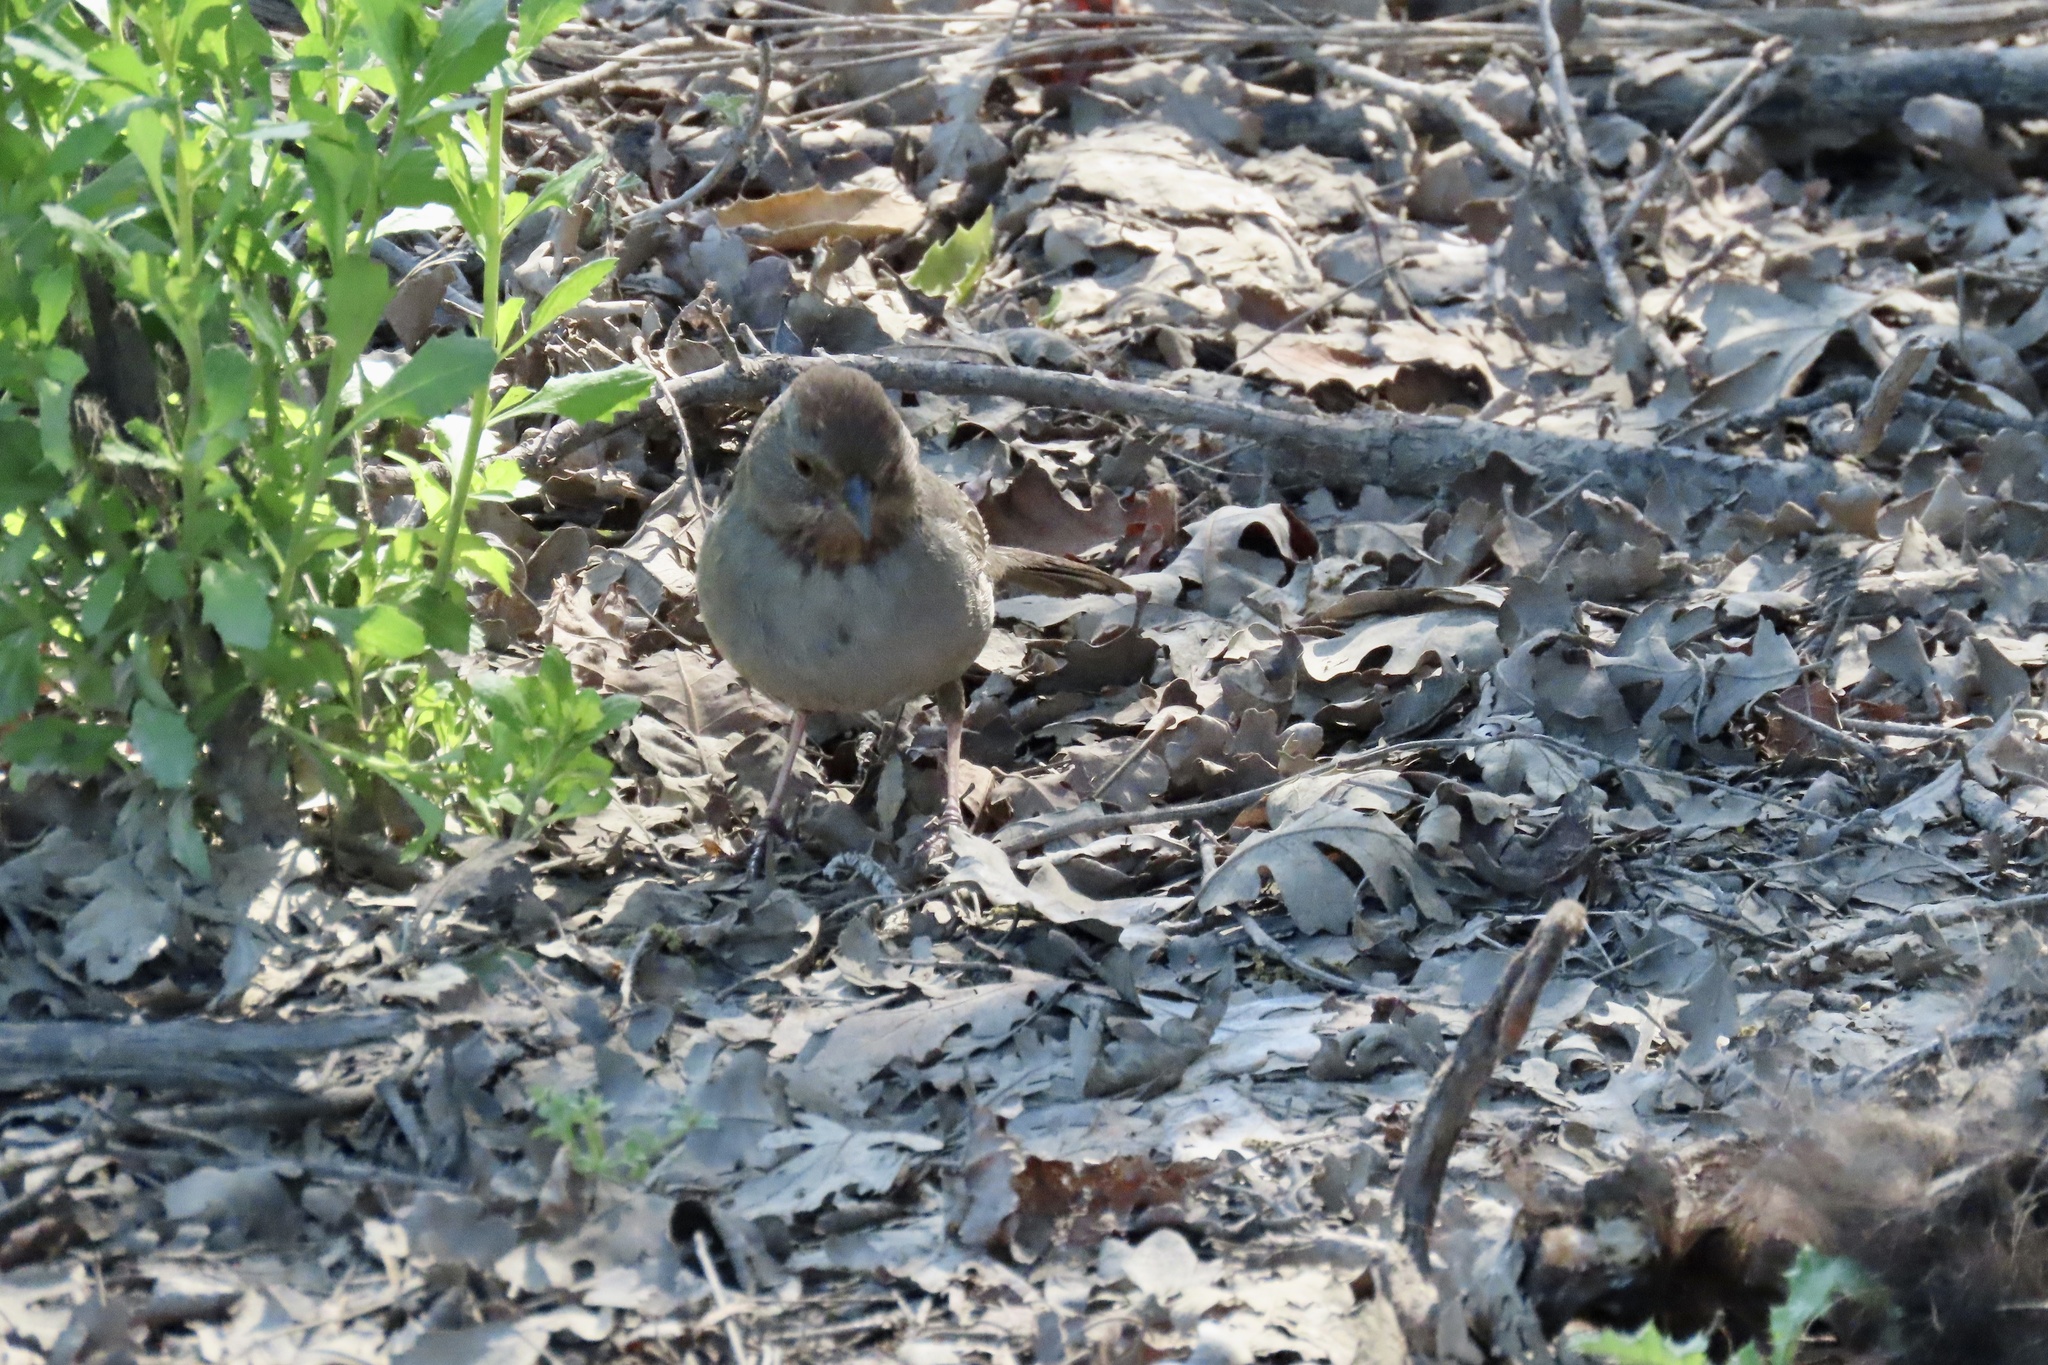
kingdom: Animalia
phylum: Chordata
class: Aves
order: Passeriformes
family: Passerellidae
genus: Melozone
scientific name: Melozone crissalis
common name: California towhee
